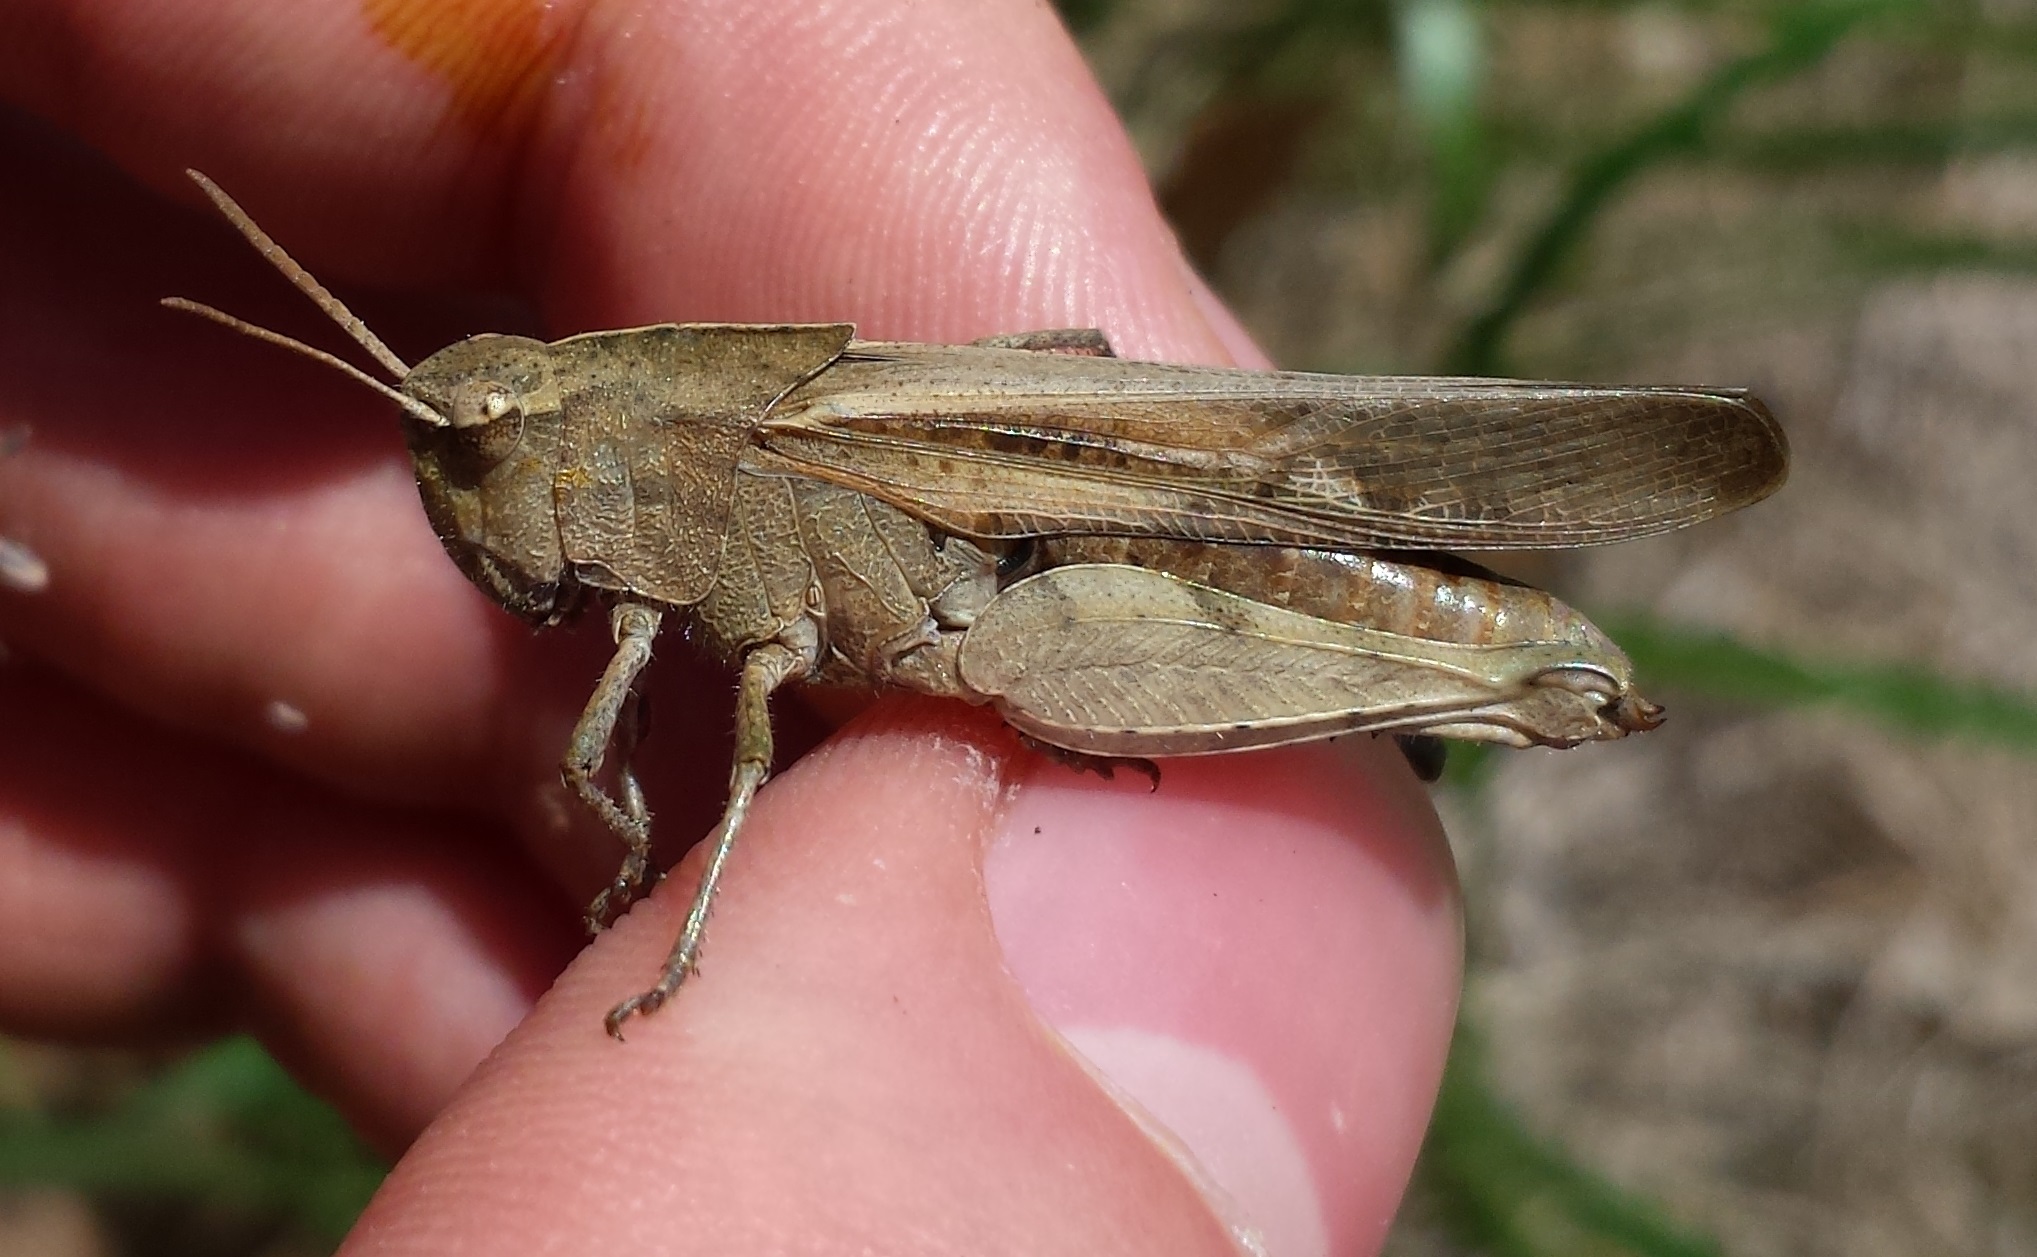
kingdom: Animalia
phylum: Arthropoda
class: Insecta
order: Orthoptera
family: Acrididae
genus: Chortophaga
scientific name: Chortophaga viridifasciata
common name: Green-striped grasshopper
